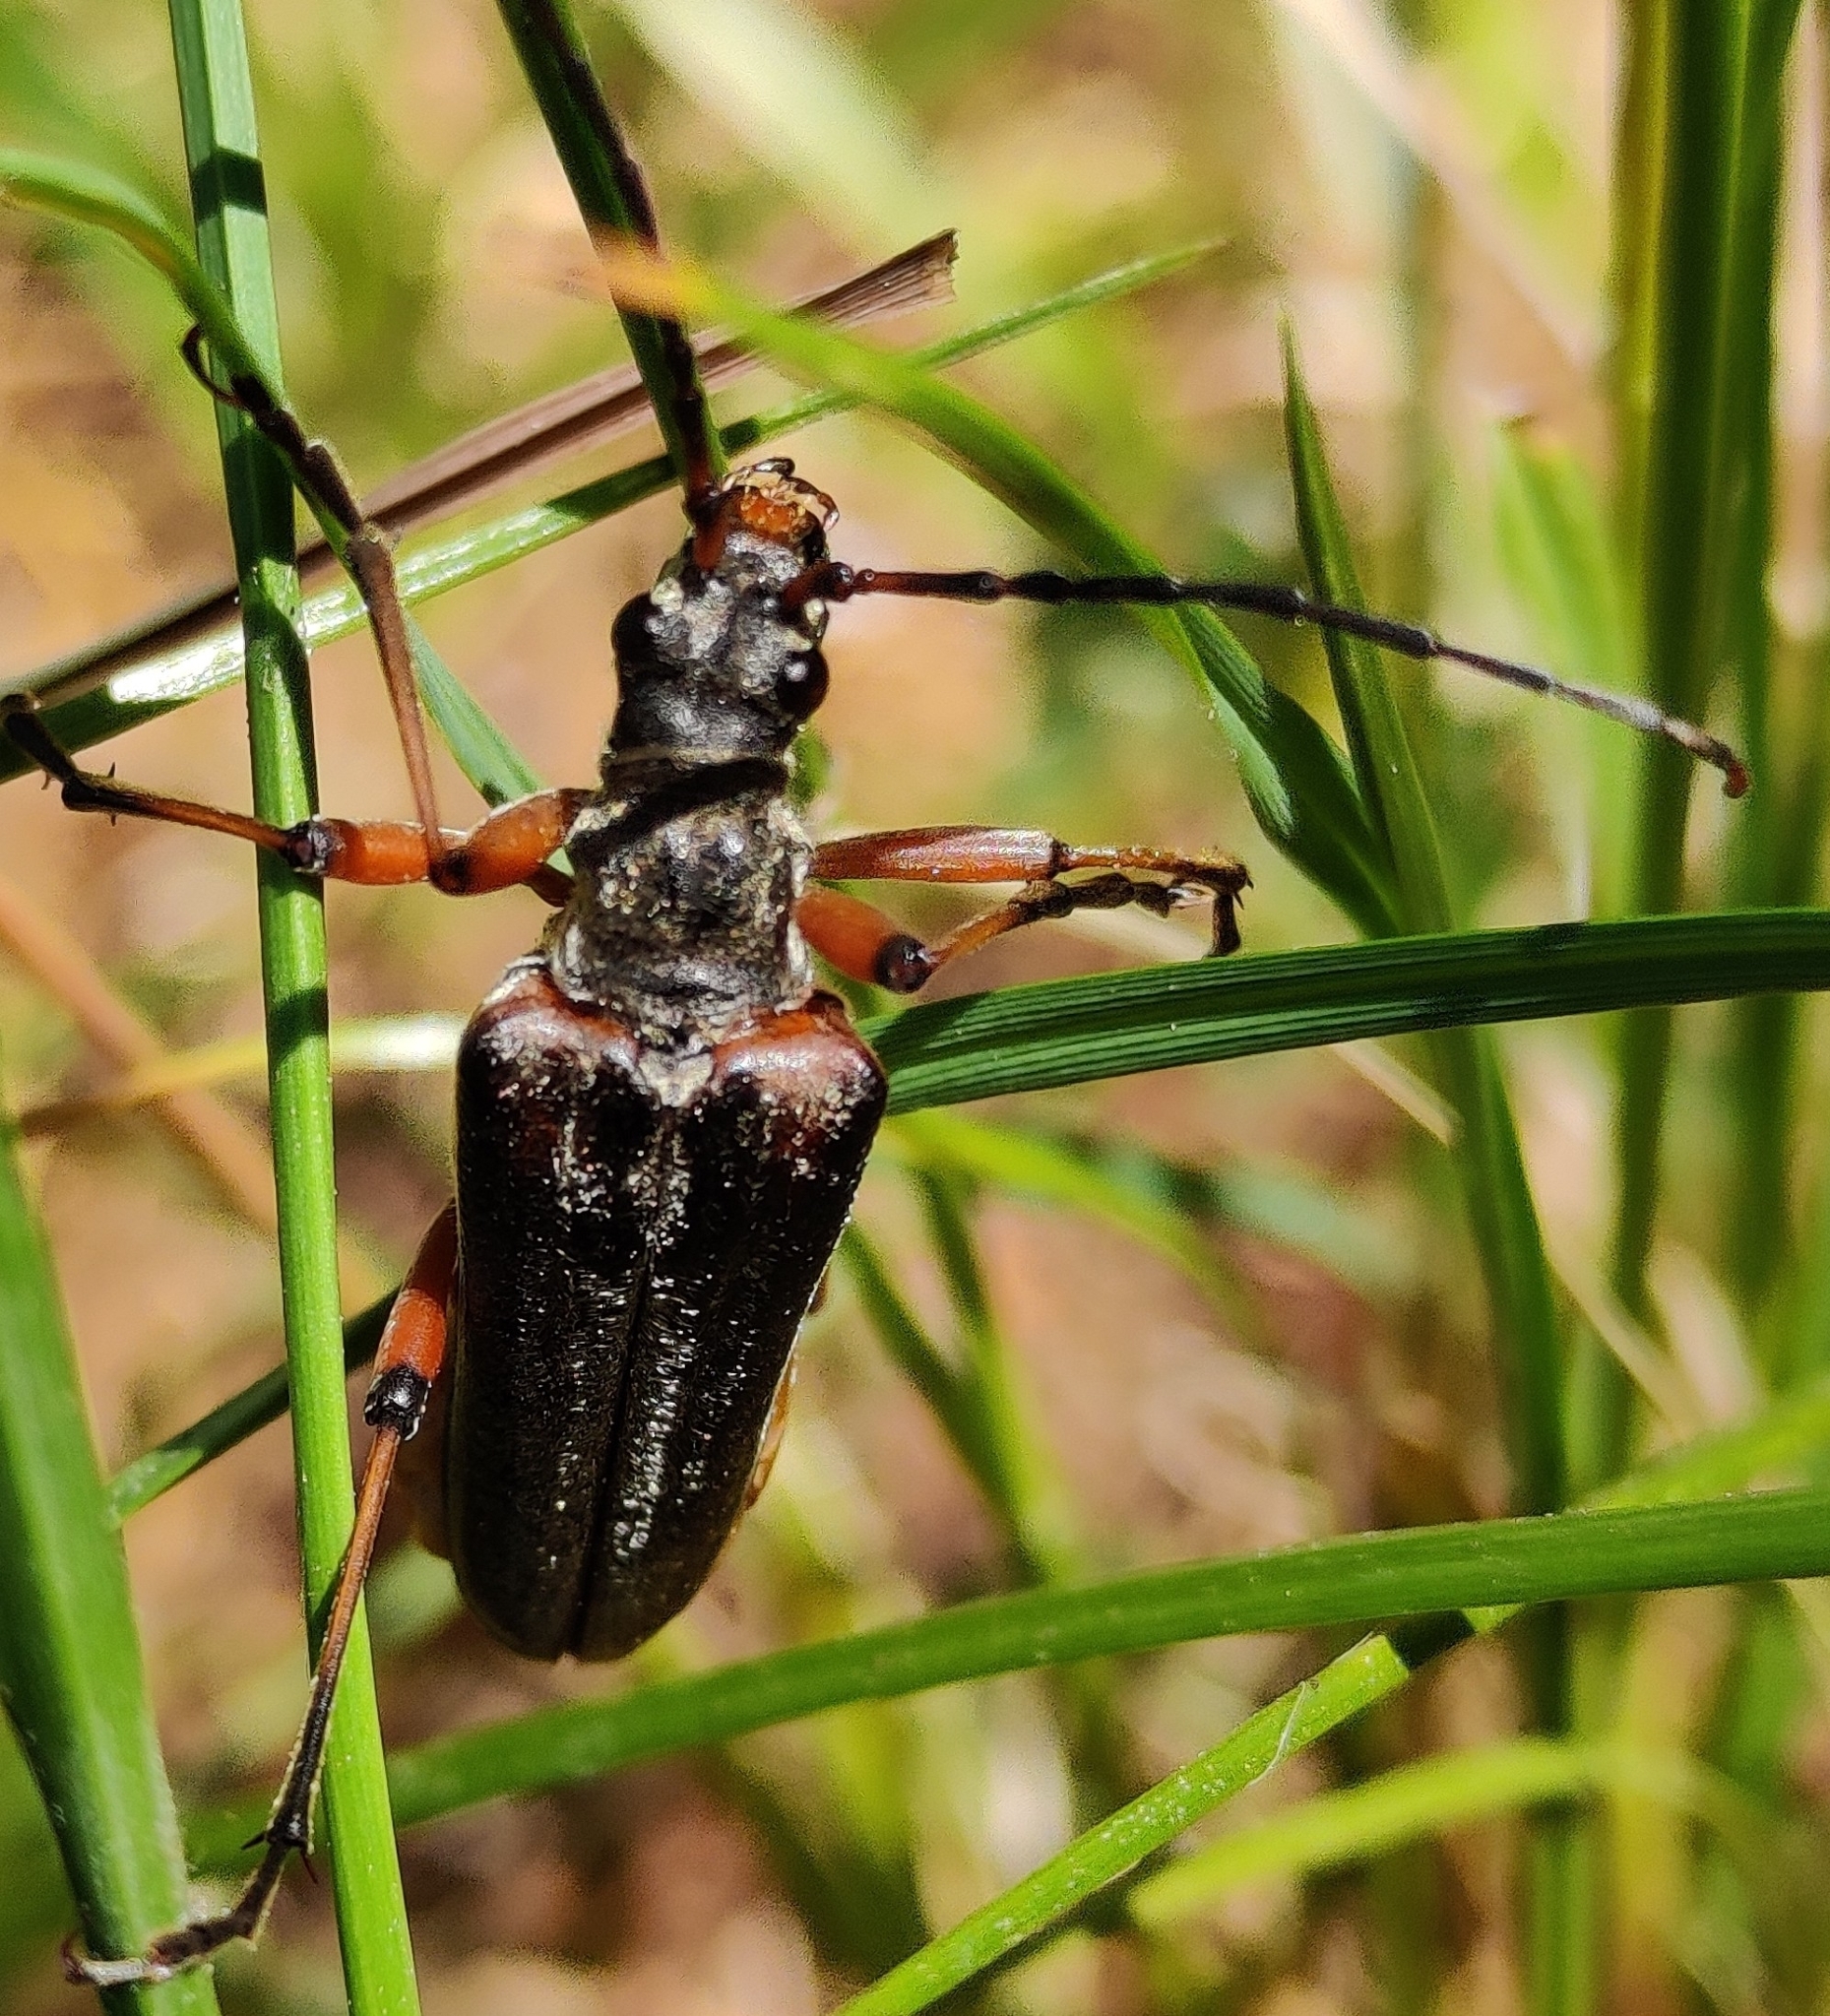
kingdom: Animalia
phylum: Arthropoda
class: Insecta
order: Coleoptera
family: Cerambycidae
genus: Stenocorus
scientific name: Stenocorus meridianus
